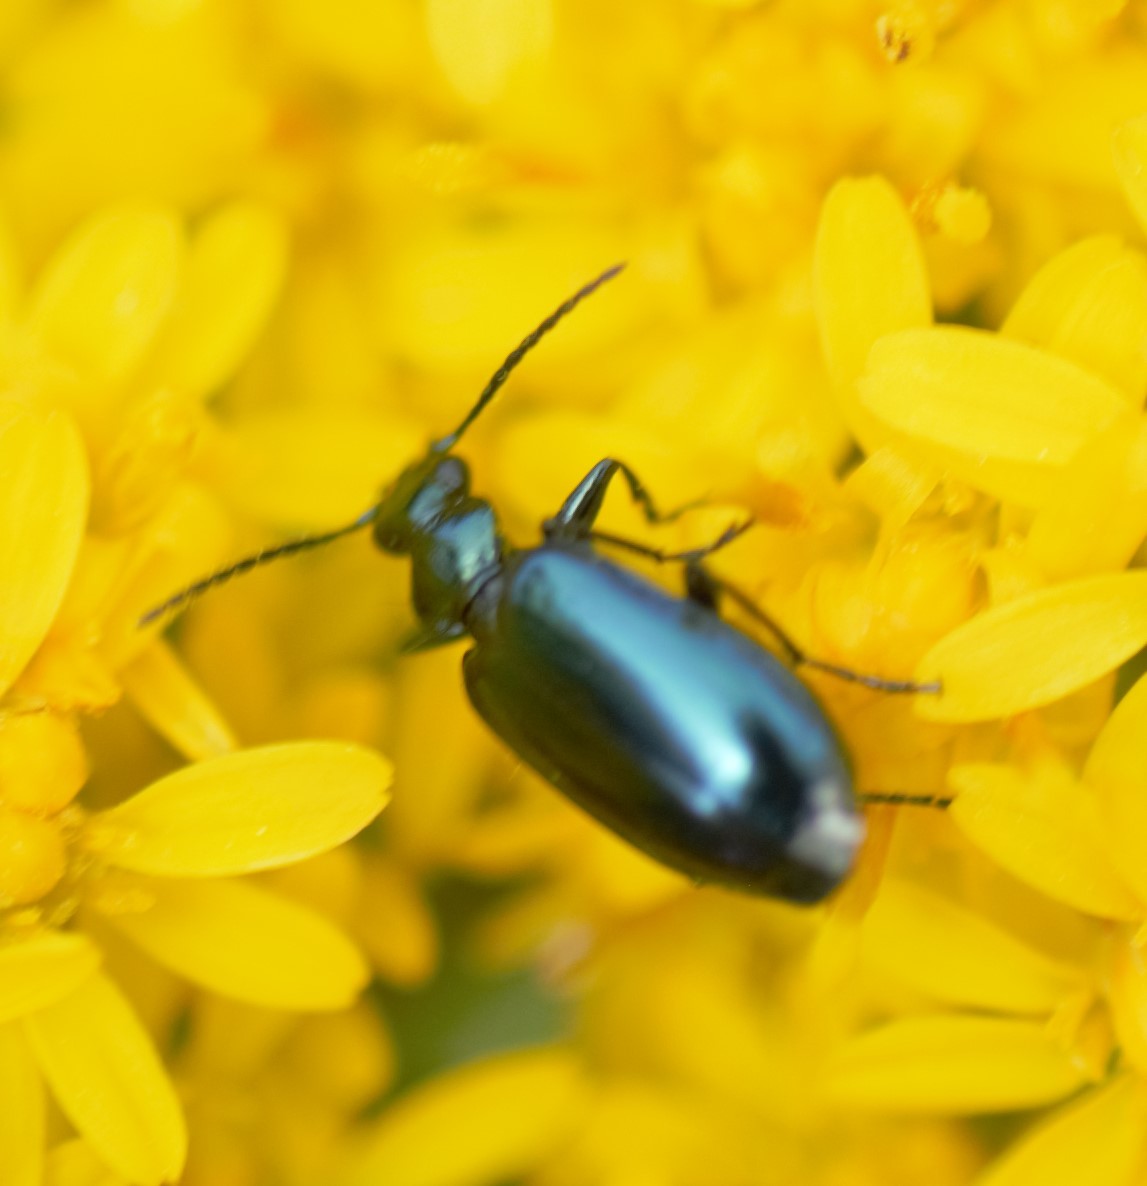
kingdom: Animalia
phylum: Arthropoda
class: Insecta
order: Coleoptera
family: Carabidae
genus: Lebia
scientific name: Lebia viridis
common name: Flower lebia beetle
